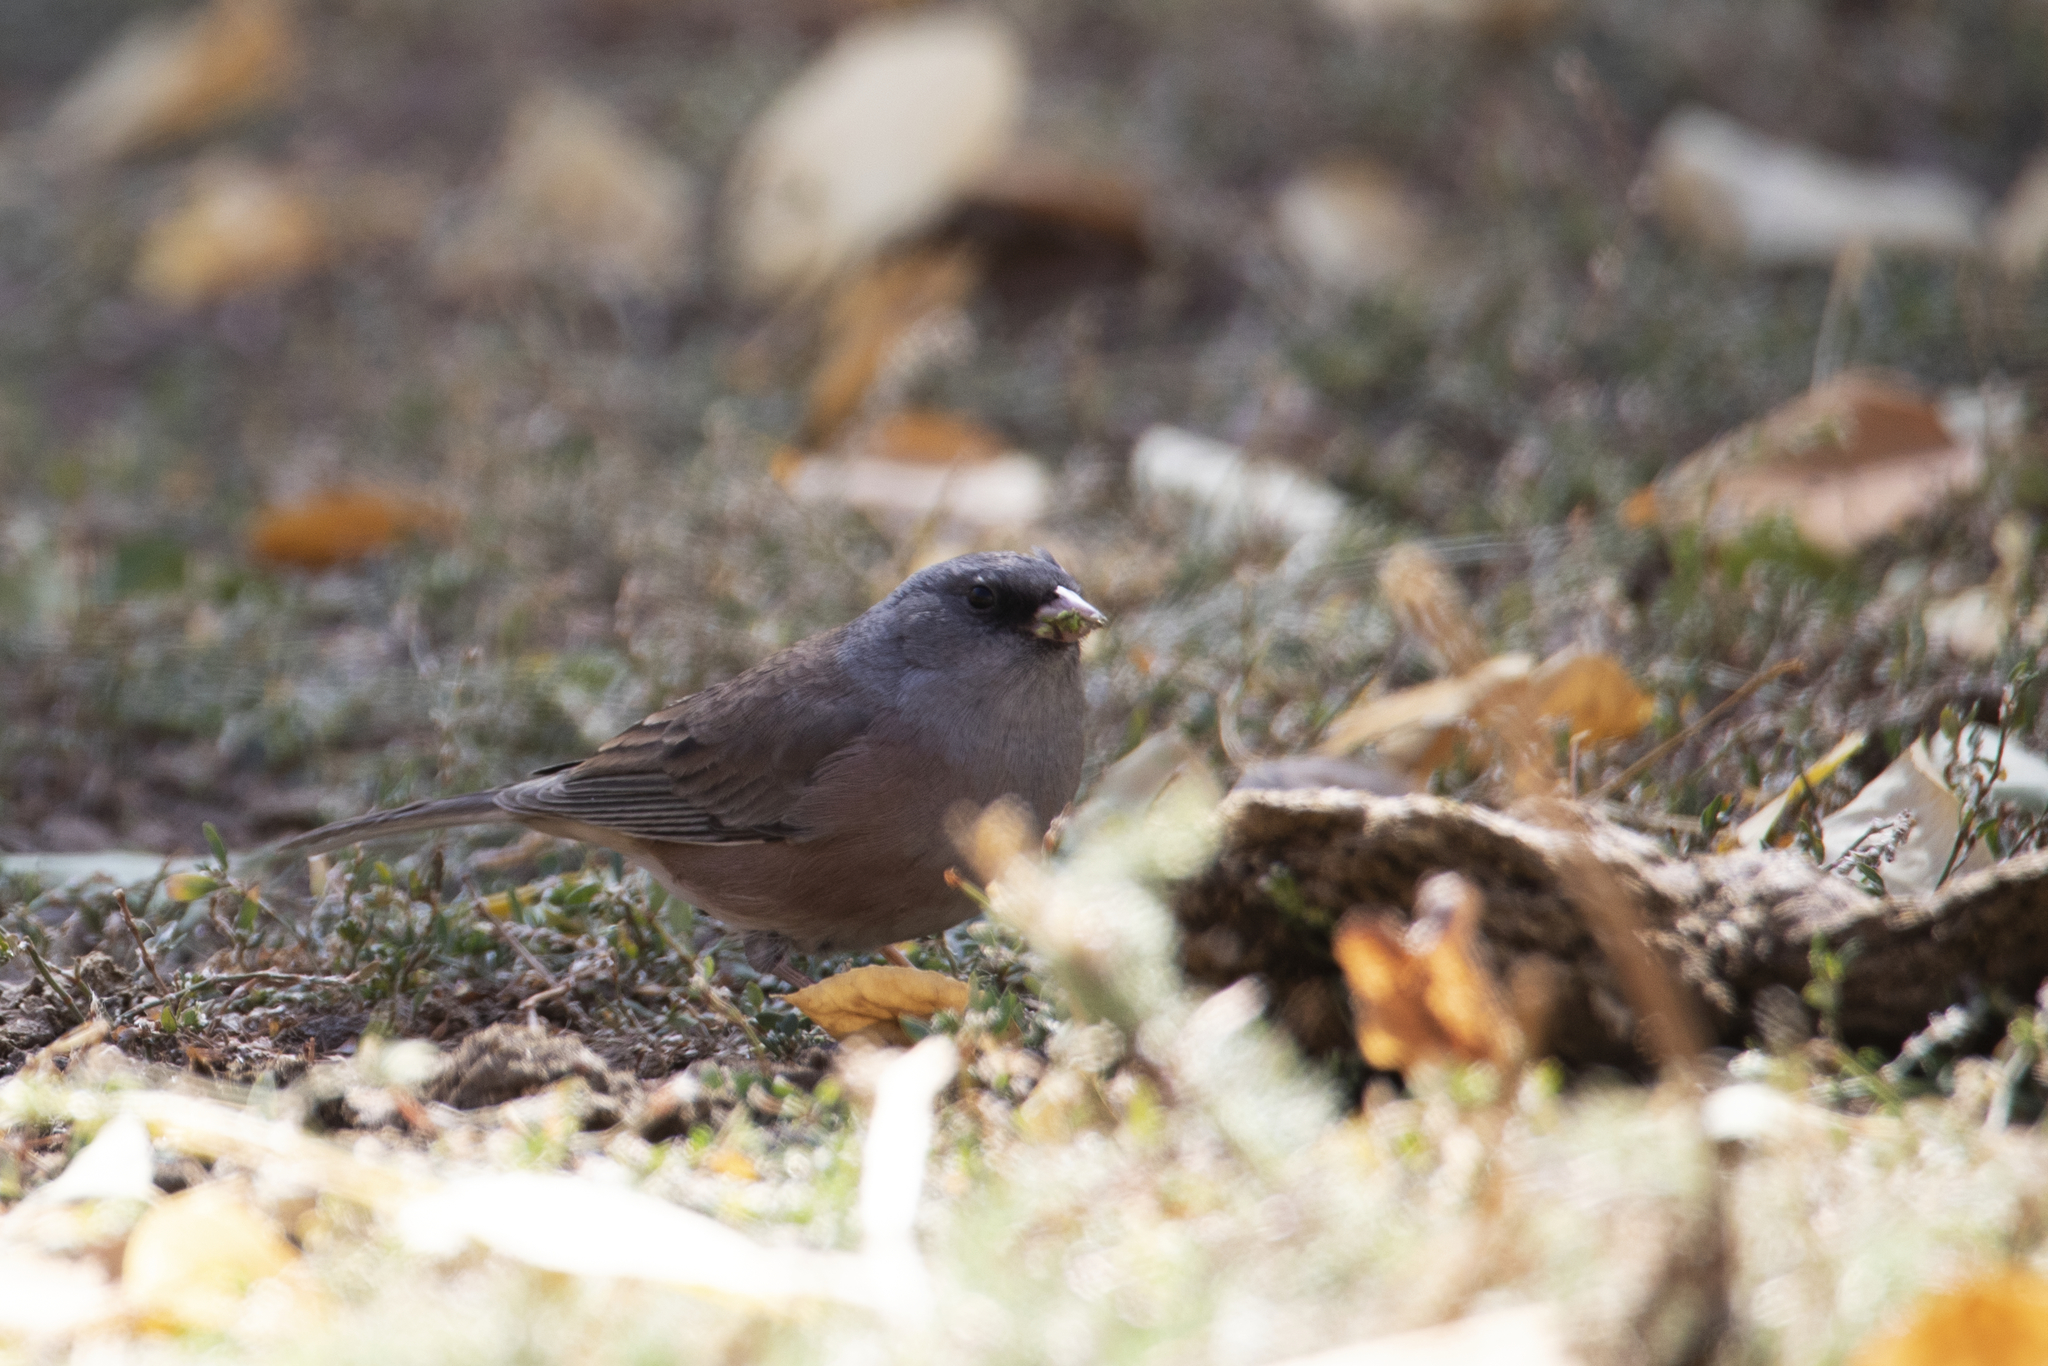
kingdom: Animalia
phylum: Chordata
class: Aves
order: Passeriformes
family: Passerellidae
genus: Junco
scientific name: Junco hyemalis
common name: Dark-eyed junco
